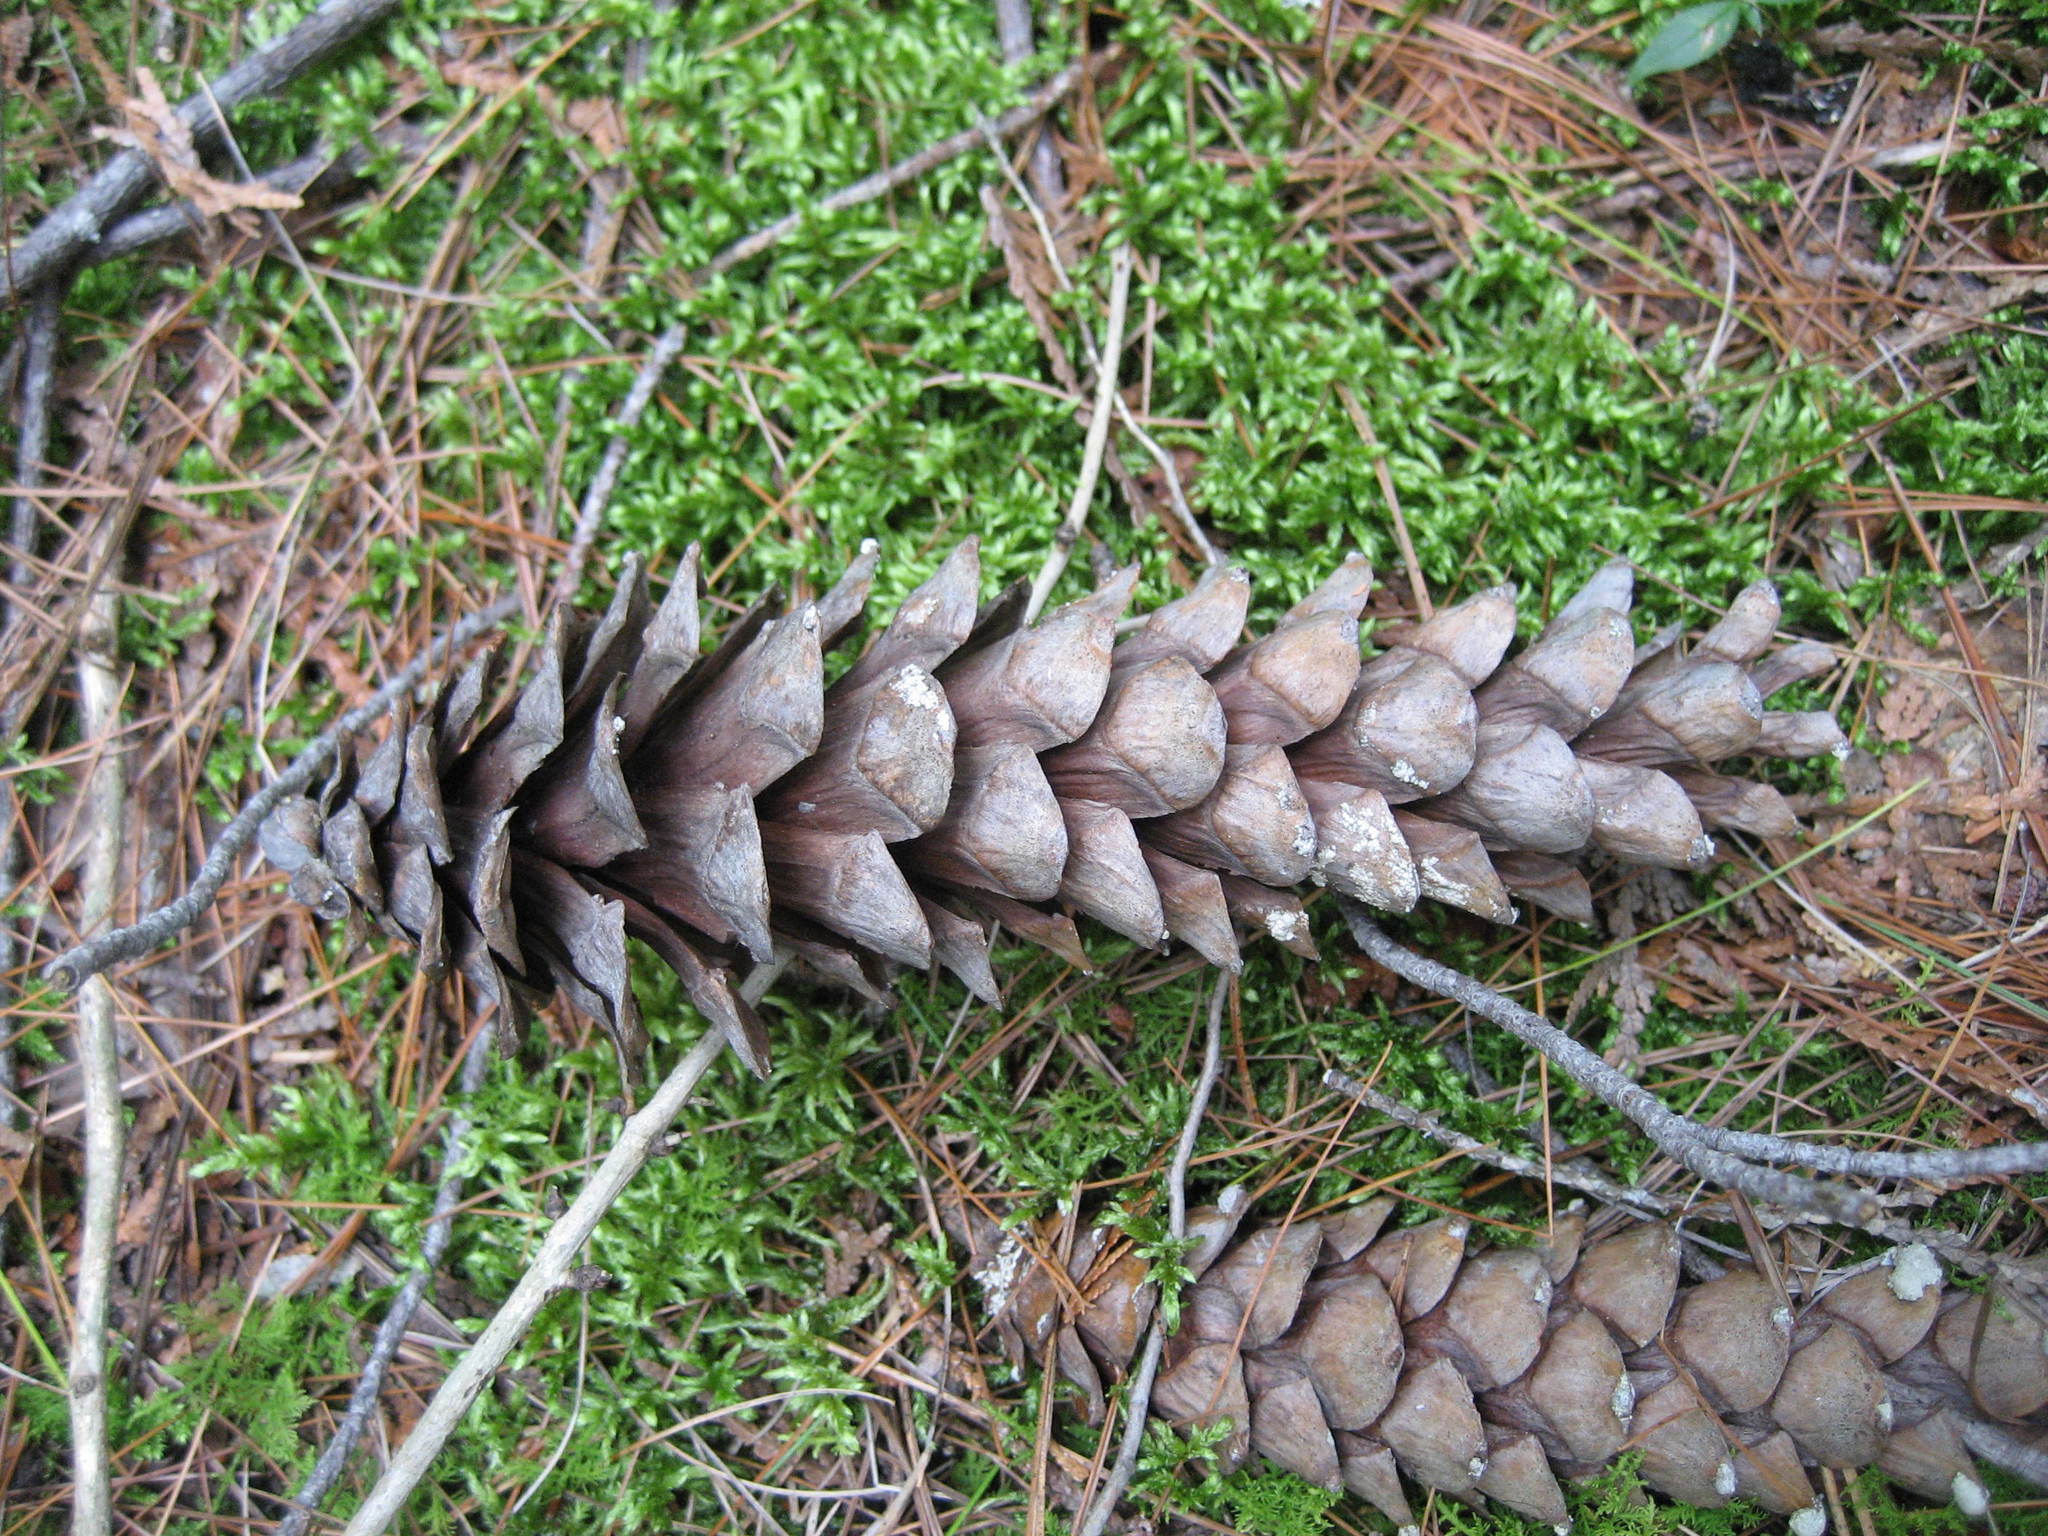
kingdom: Plantae
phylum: Tracheophyta
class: Pinopsida
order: Pinales
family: Pinaceae
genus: Pinus
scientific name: Pinus strobus
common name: Weymouth pine
